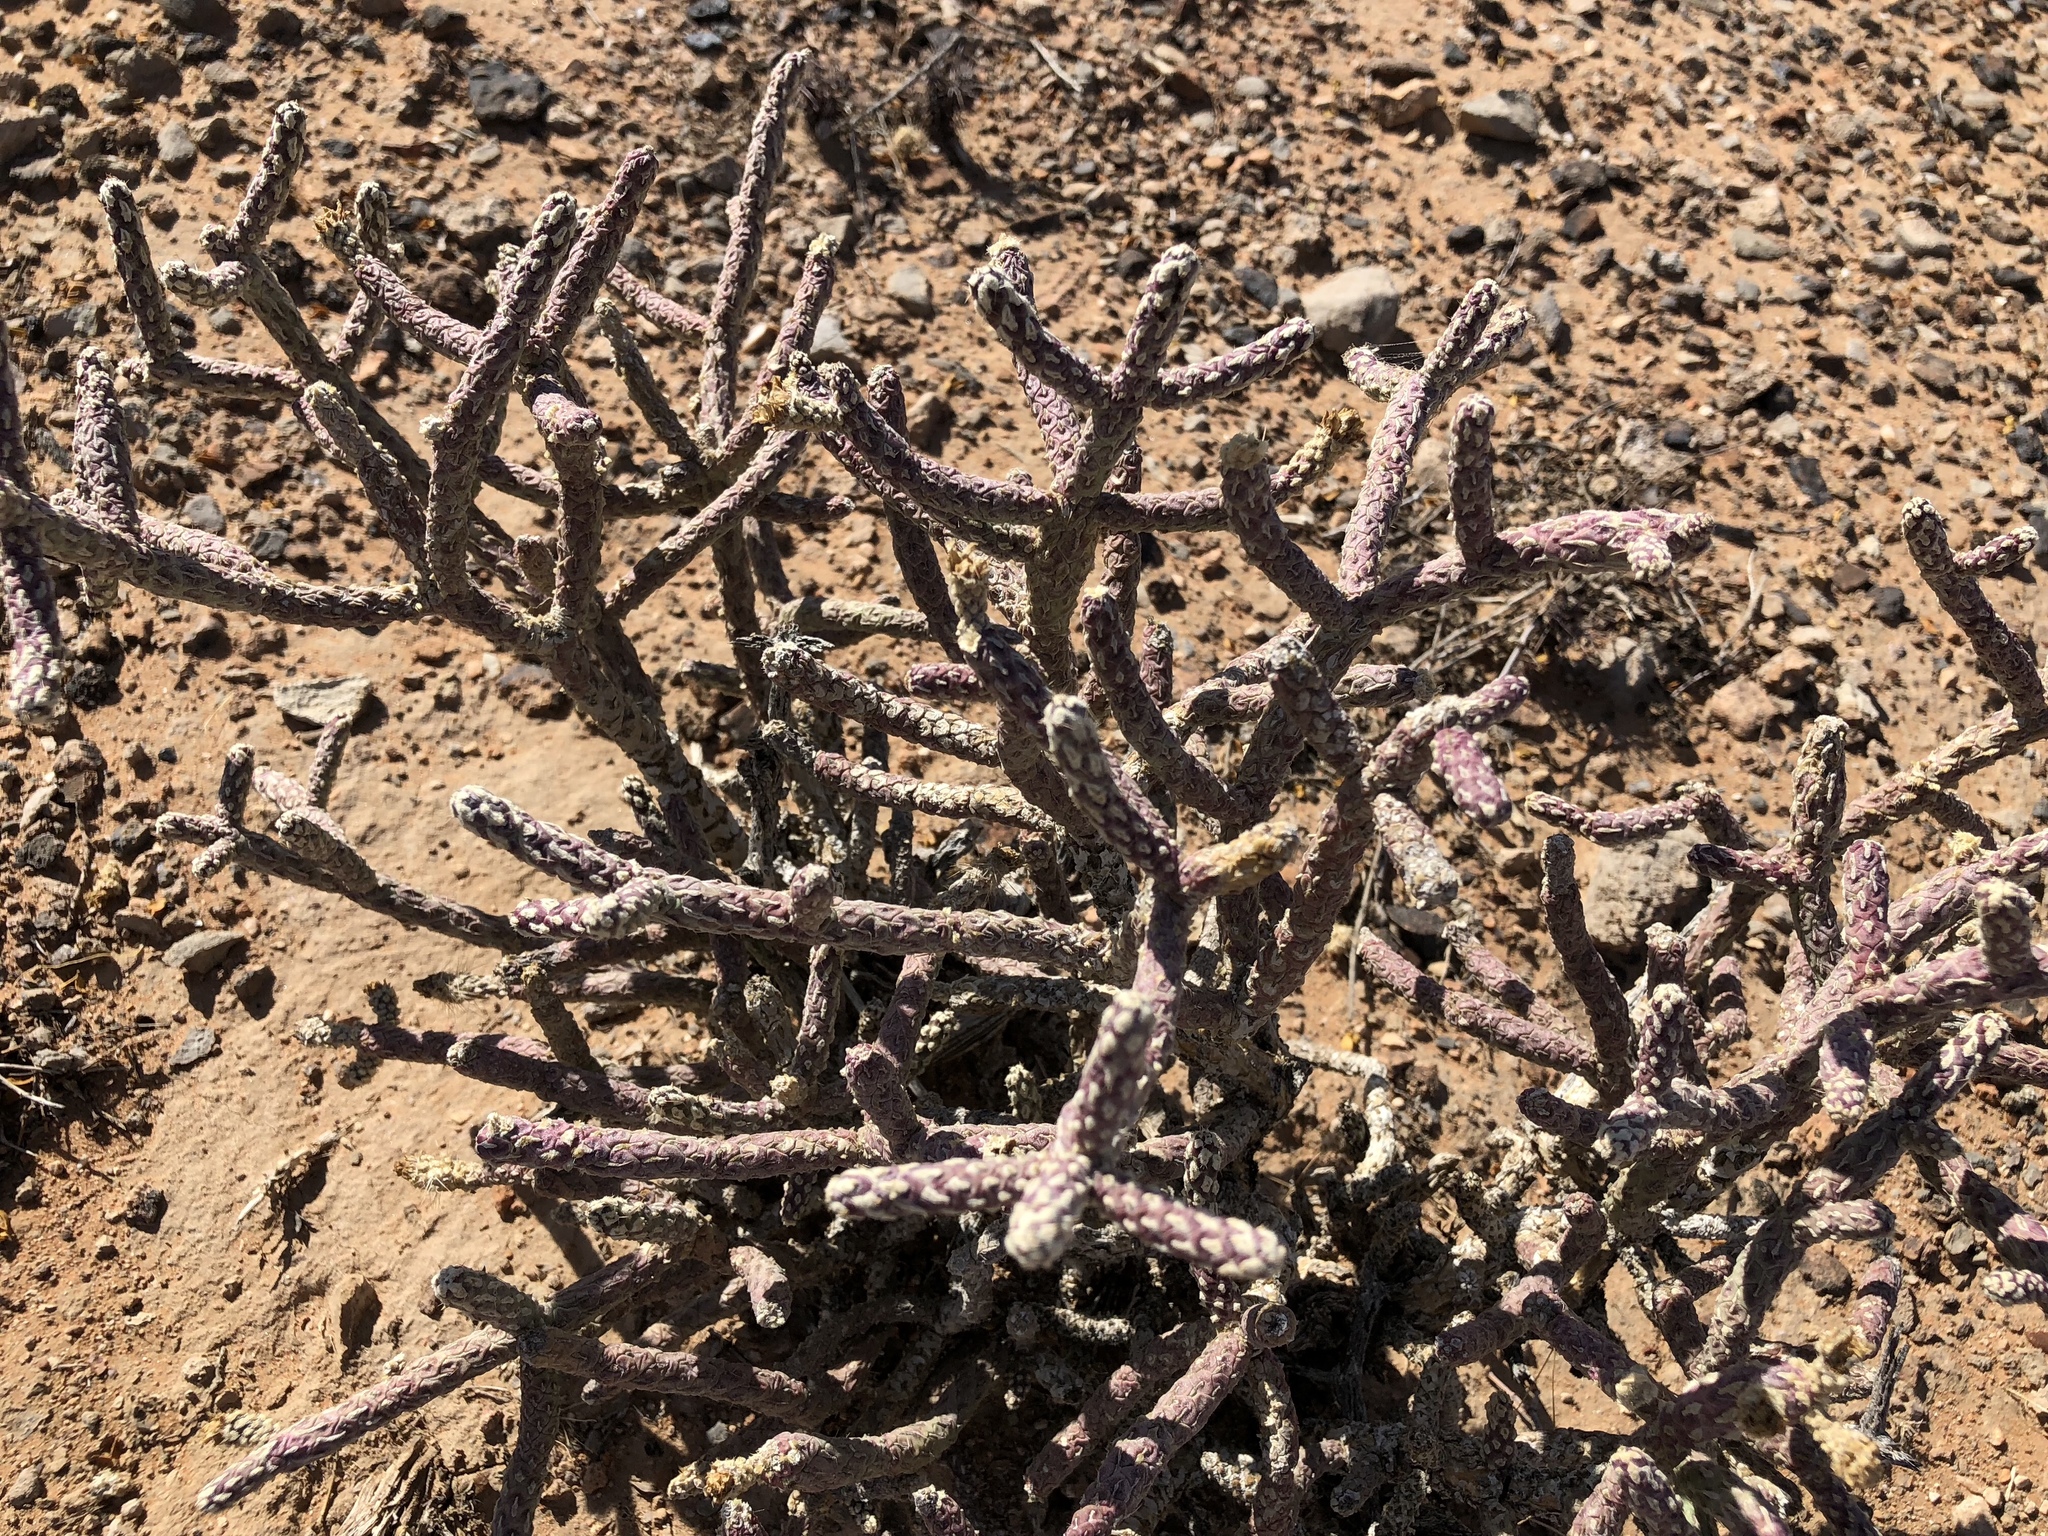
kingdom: Plantae
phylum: Tracheophyta
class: Magnoliopsida
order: Caryophyllales
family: Cactaceae
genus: Cylindropuntia
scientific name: Cylindropuntia ramosissima
